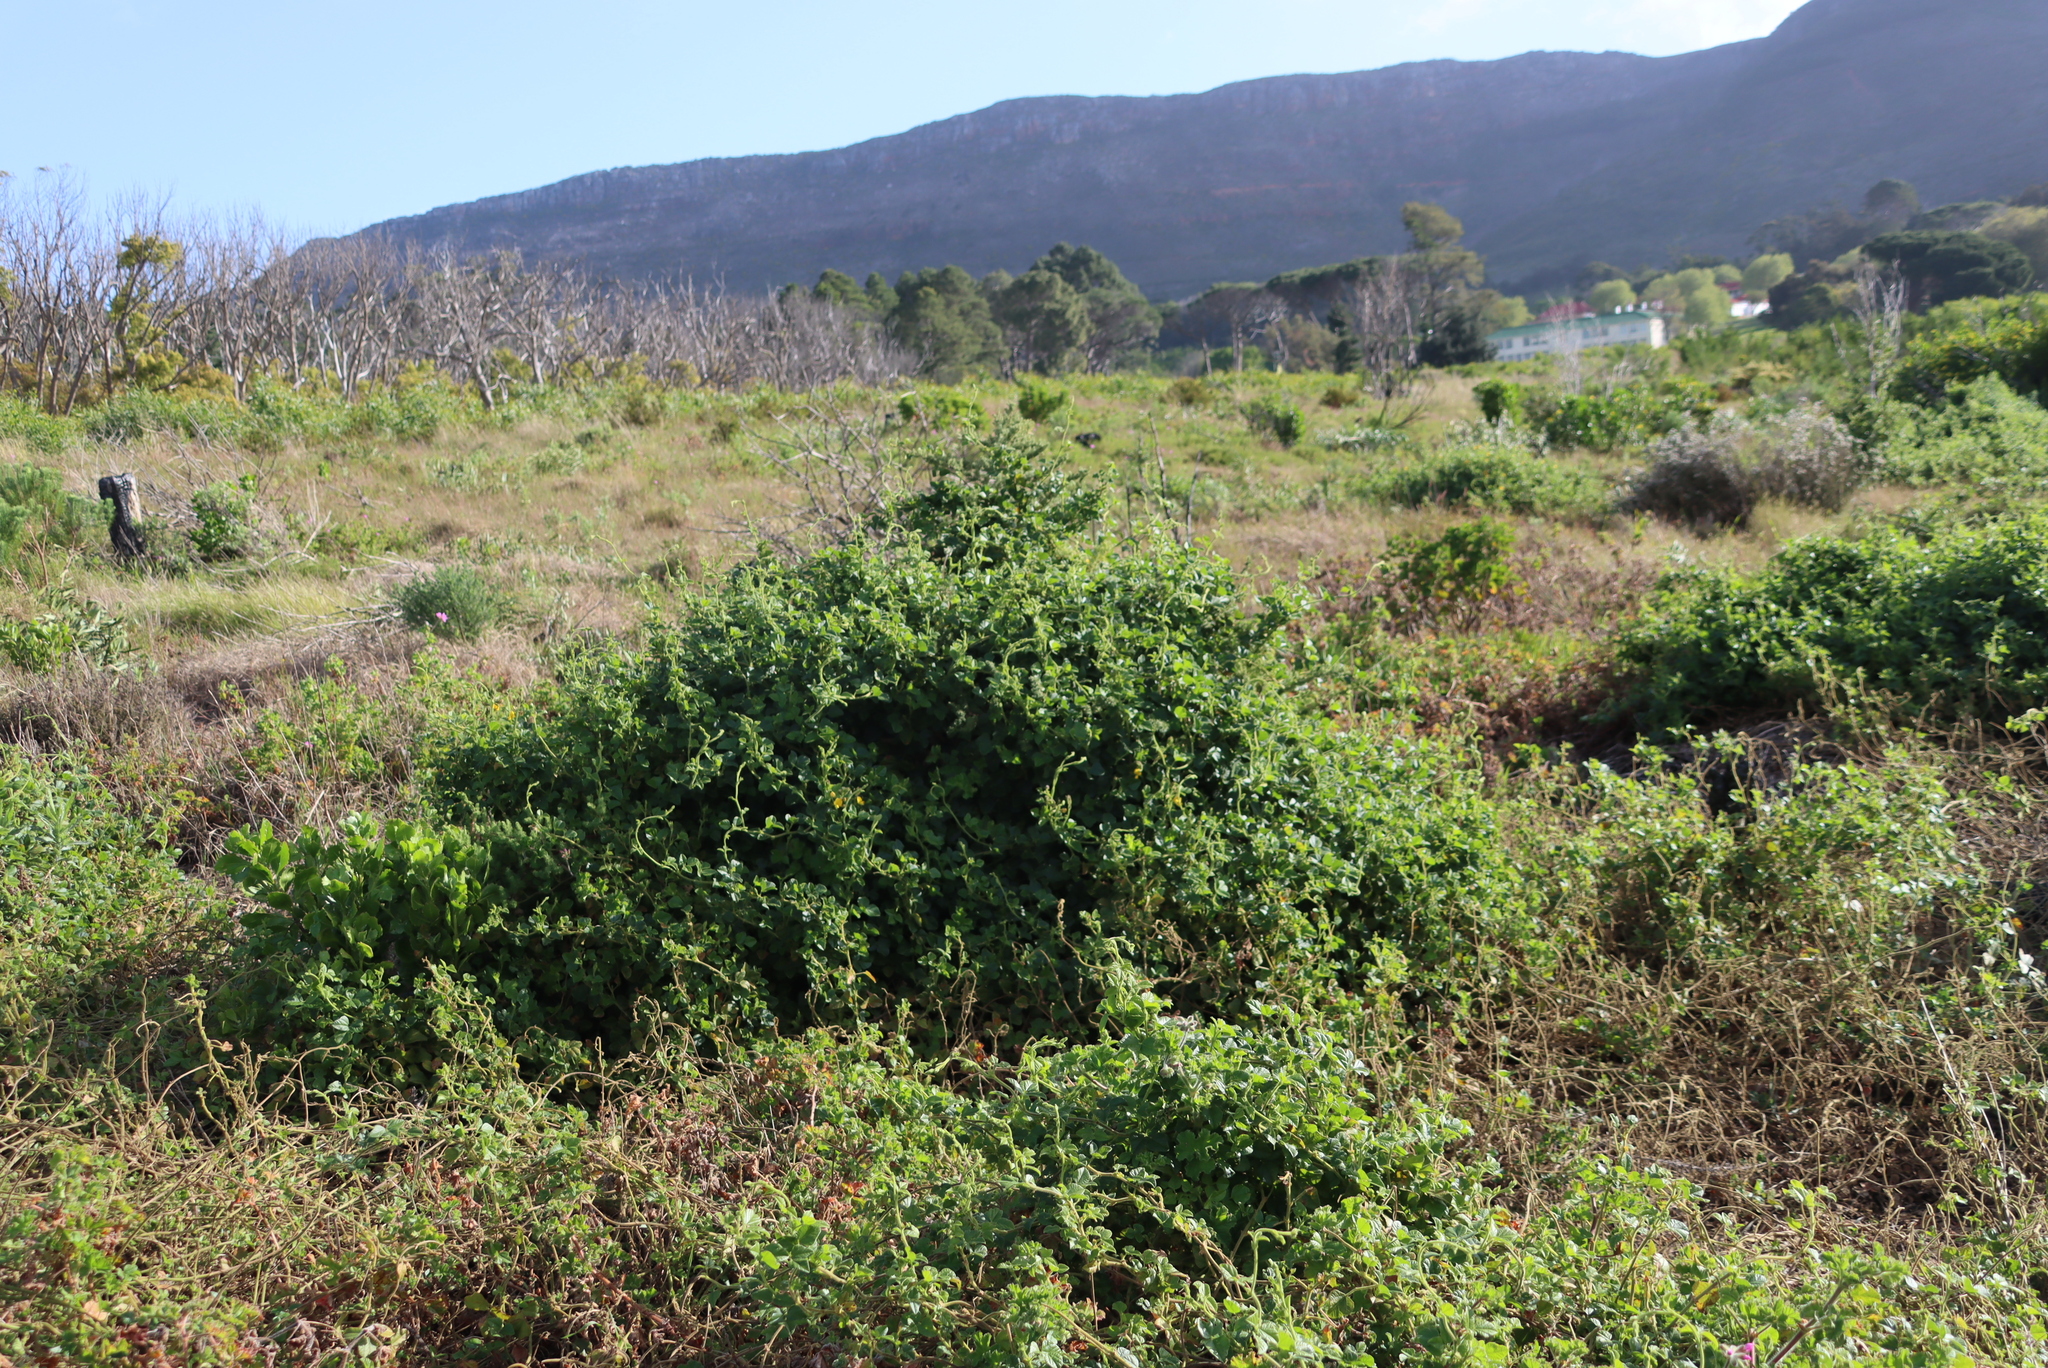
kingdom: Plantae
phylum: Tracheophyta
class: Magnoliopsida
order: Fabales
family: Fabaceae
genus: Bolusafra
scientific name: Bolusafra bituminosa
